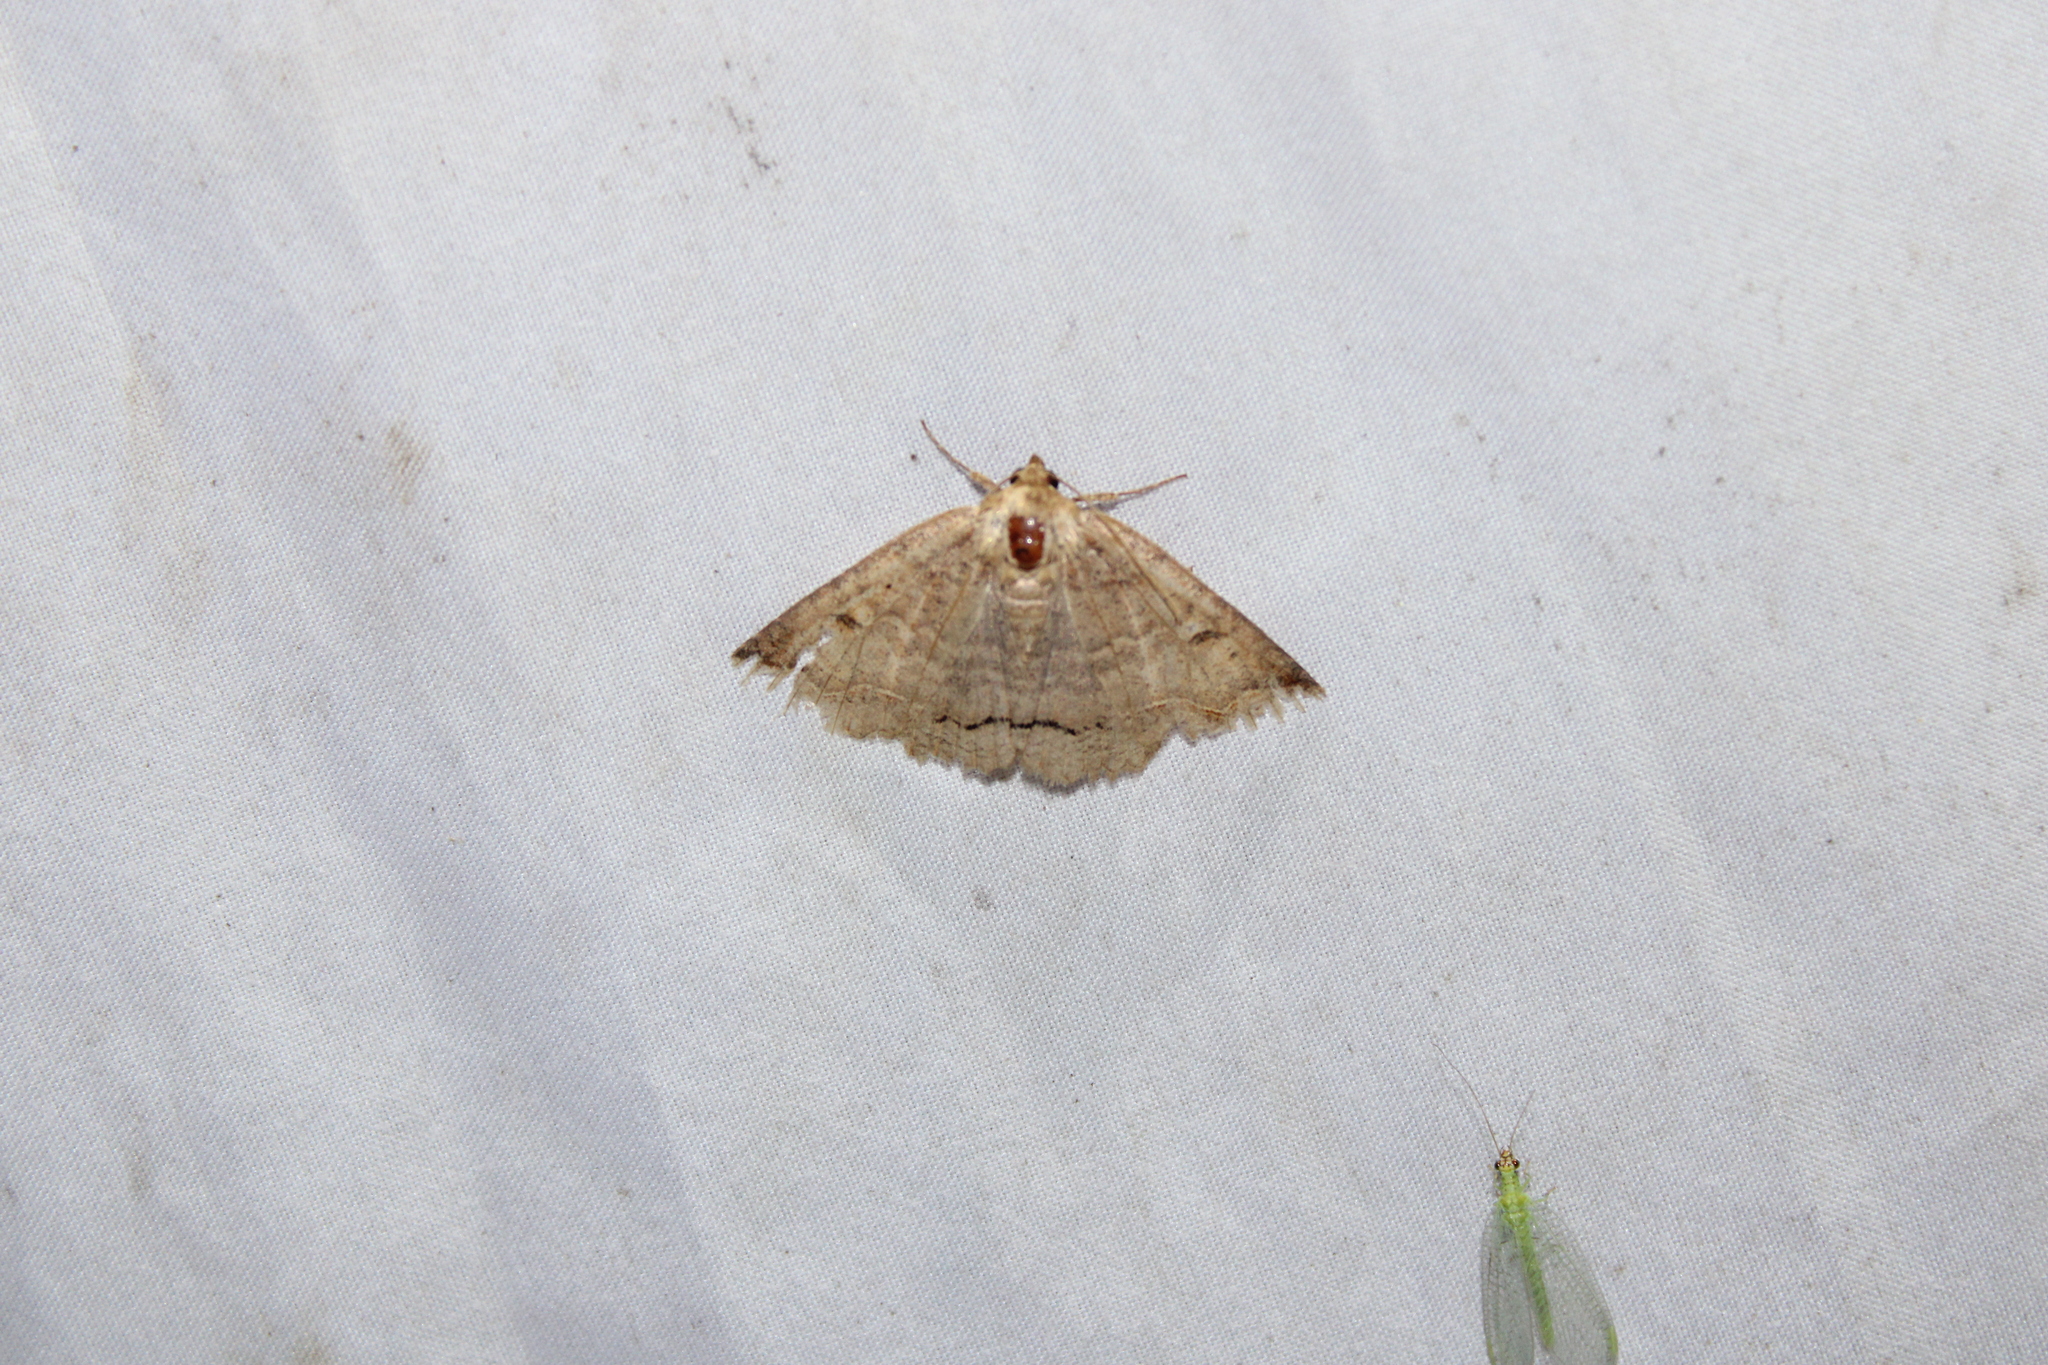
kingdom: Animalia
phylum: Arthropoda
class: Insecta
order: Lepidoptera
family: Erebidae
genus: Zale
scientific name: Zale unilineata
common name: One-lined zale moth
